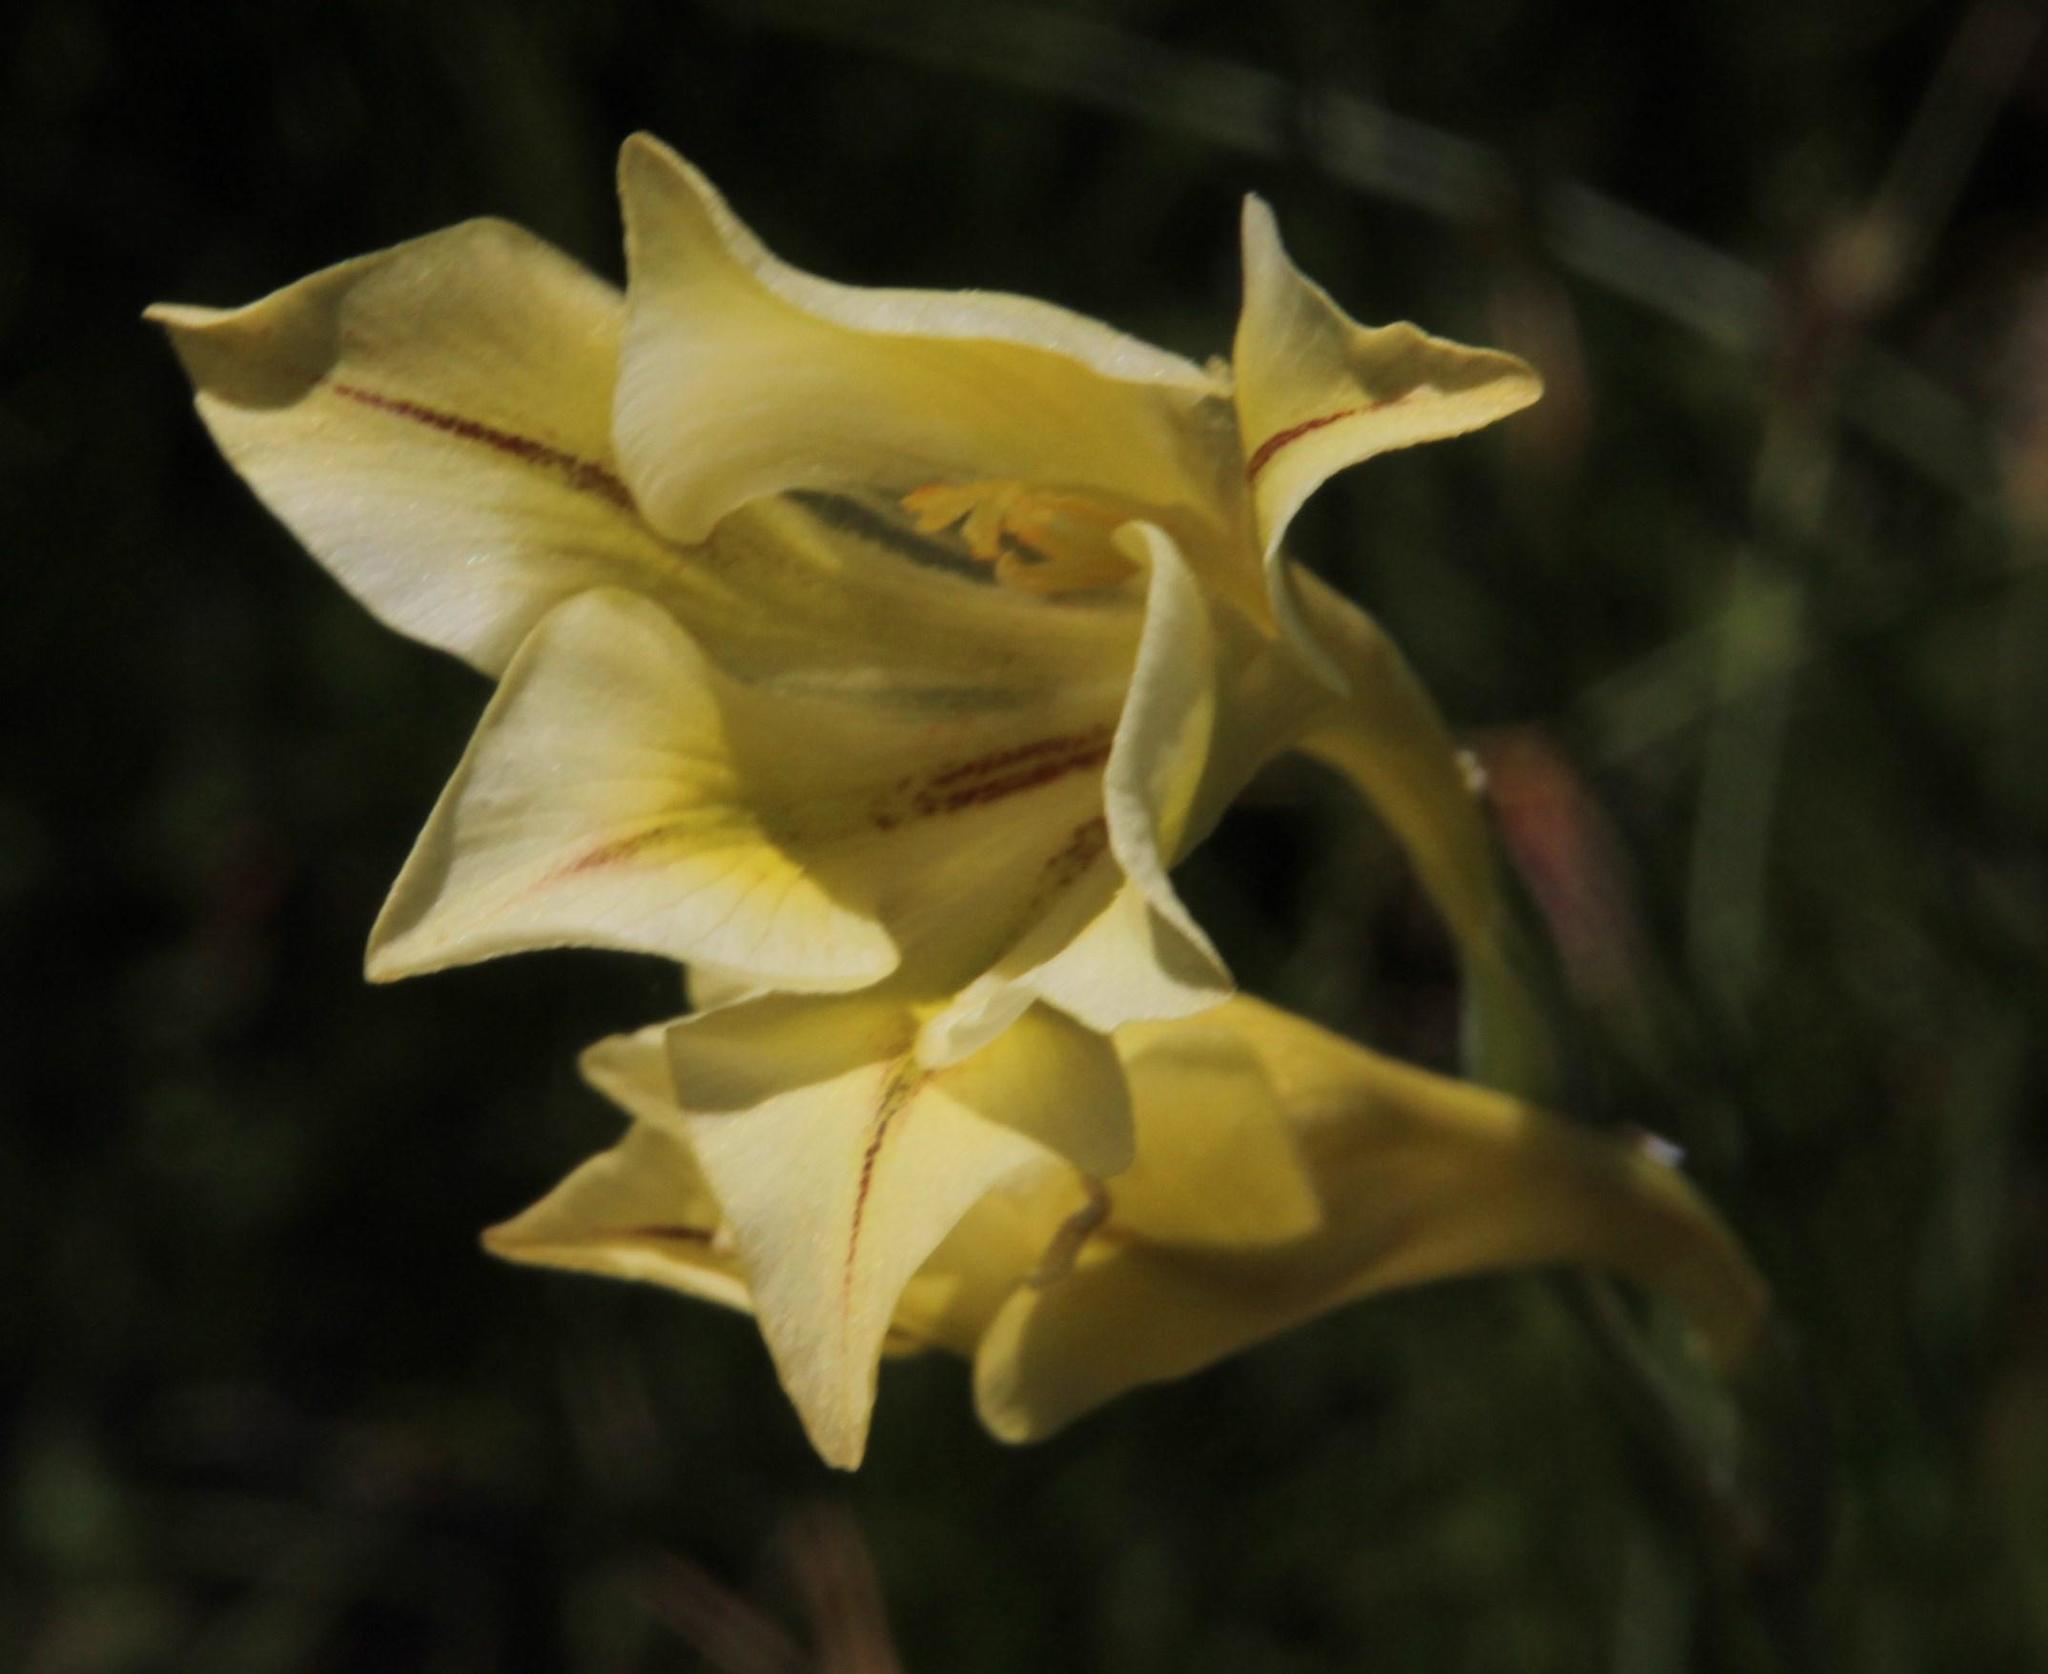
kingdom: Plantae
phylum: Tracheophyta
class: Liliopsida
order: Asparagales
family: Iridaceae
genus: Gladiolus
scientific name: Gladiolus tristis
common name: Ever-flowering gladiolus
